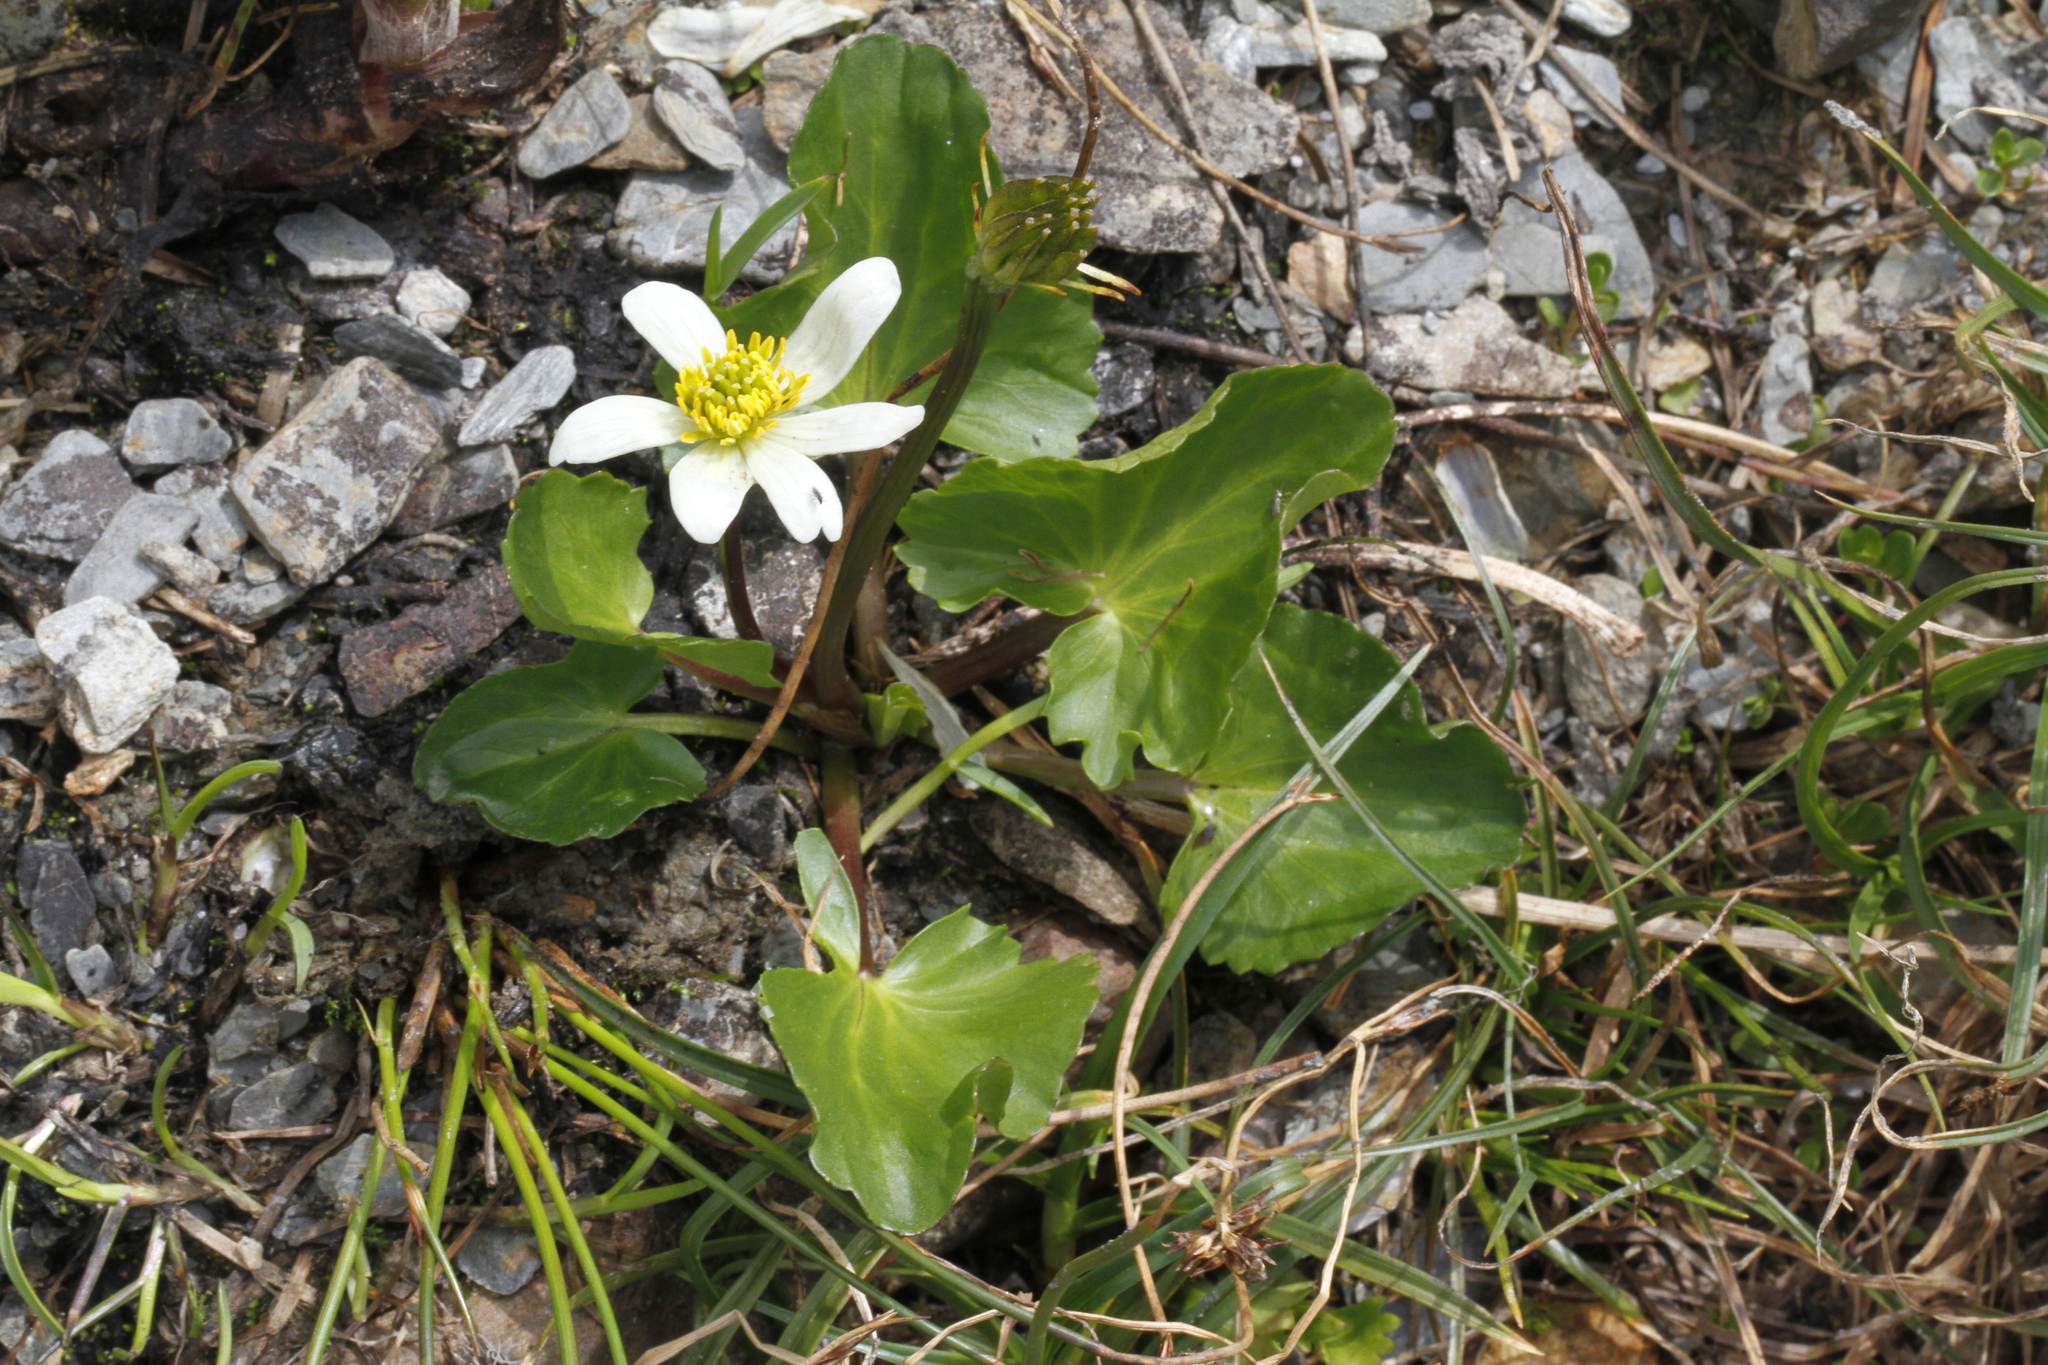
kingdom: Plantae
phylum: Tracheophyta
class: Magnoliopsida
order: Ranunculales
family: Ranunculaceae
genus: Caltha
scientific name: Caltha leptosepala
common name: Elkslip
